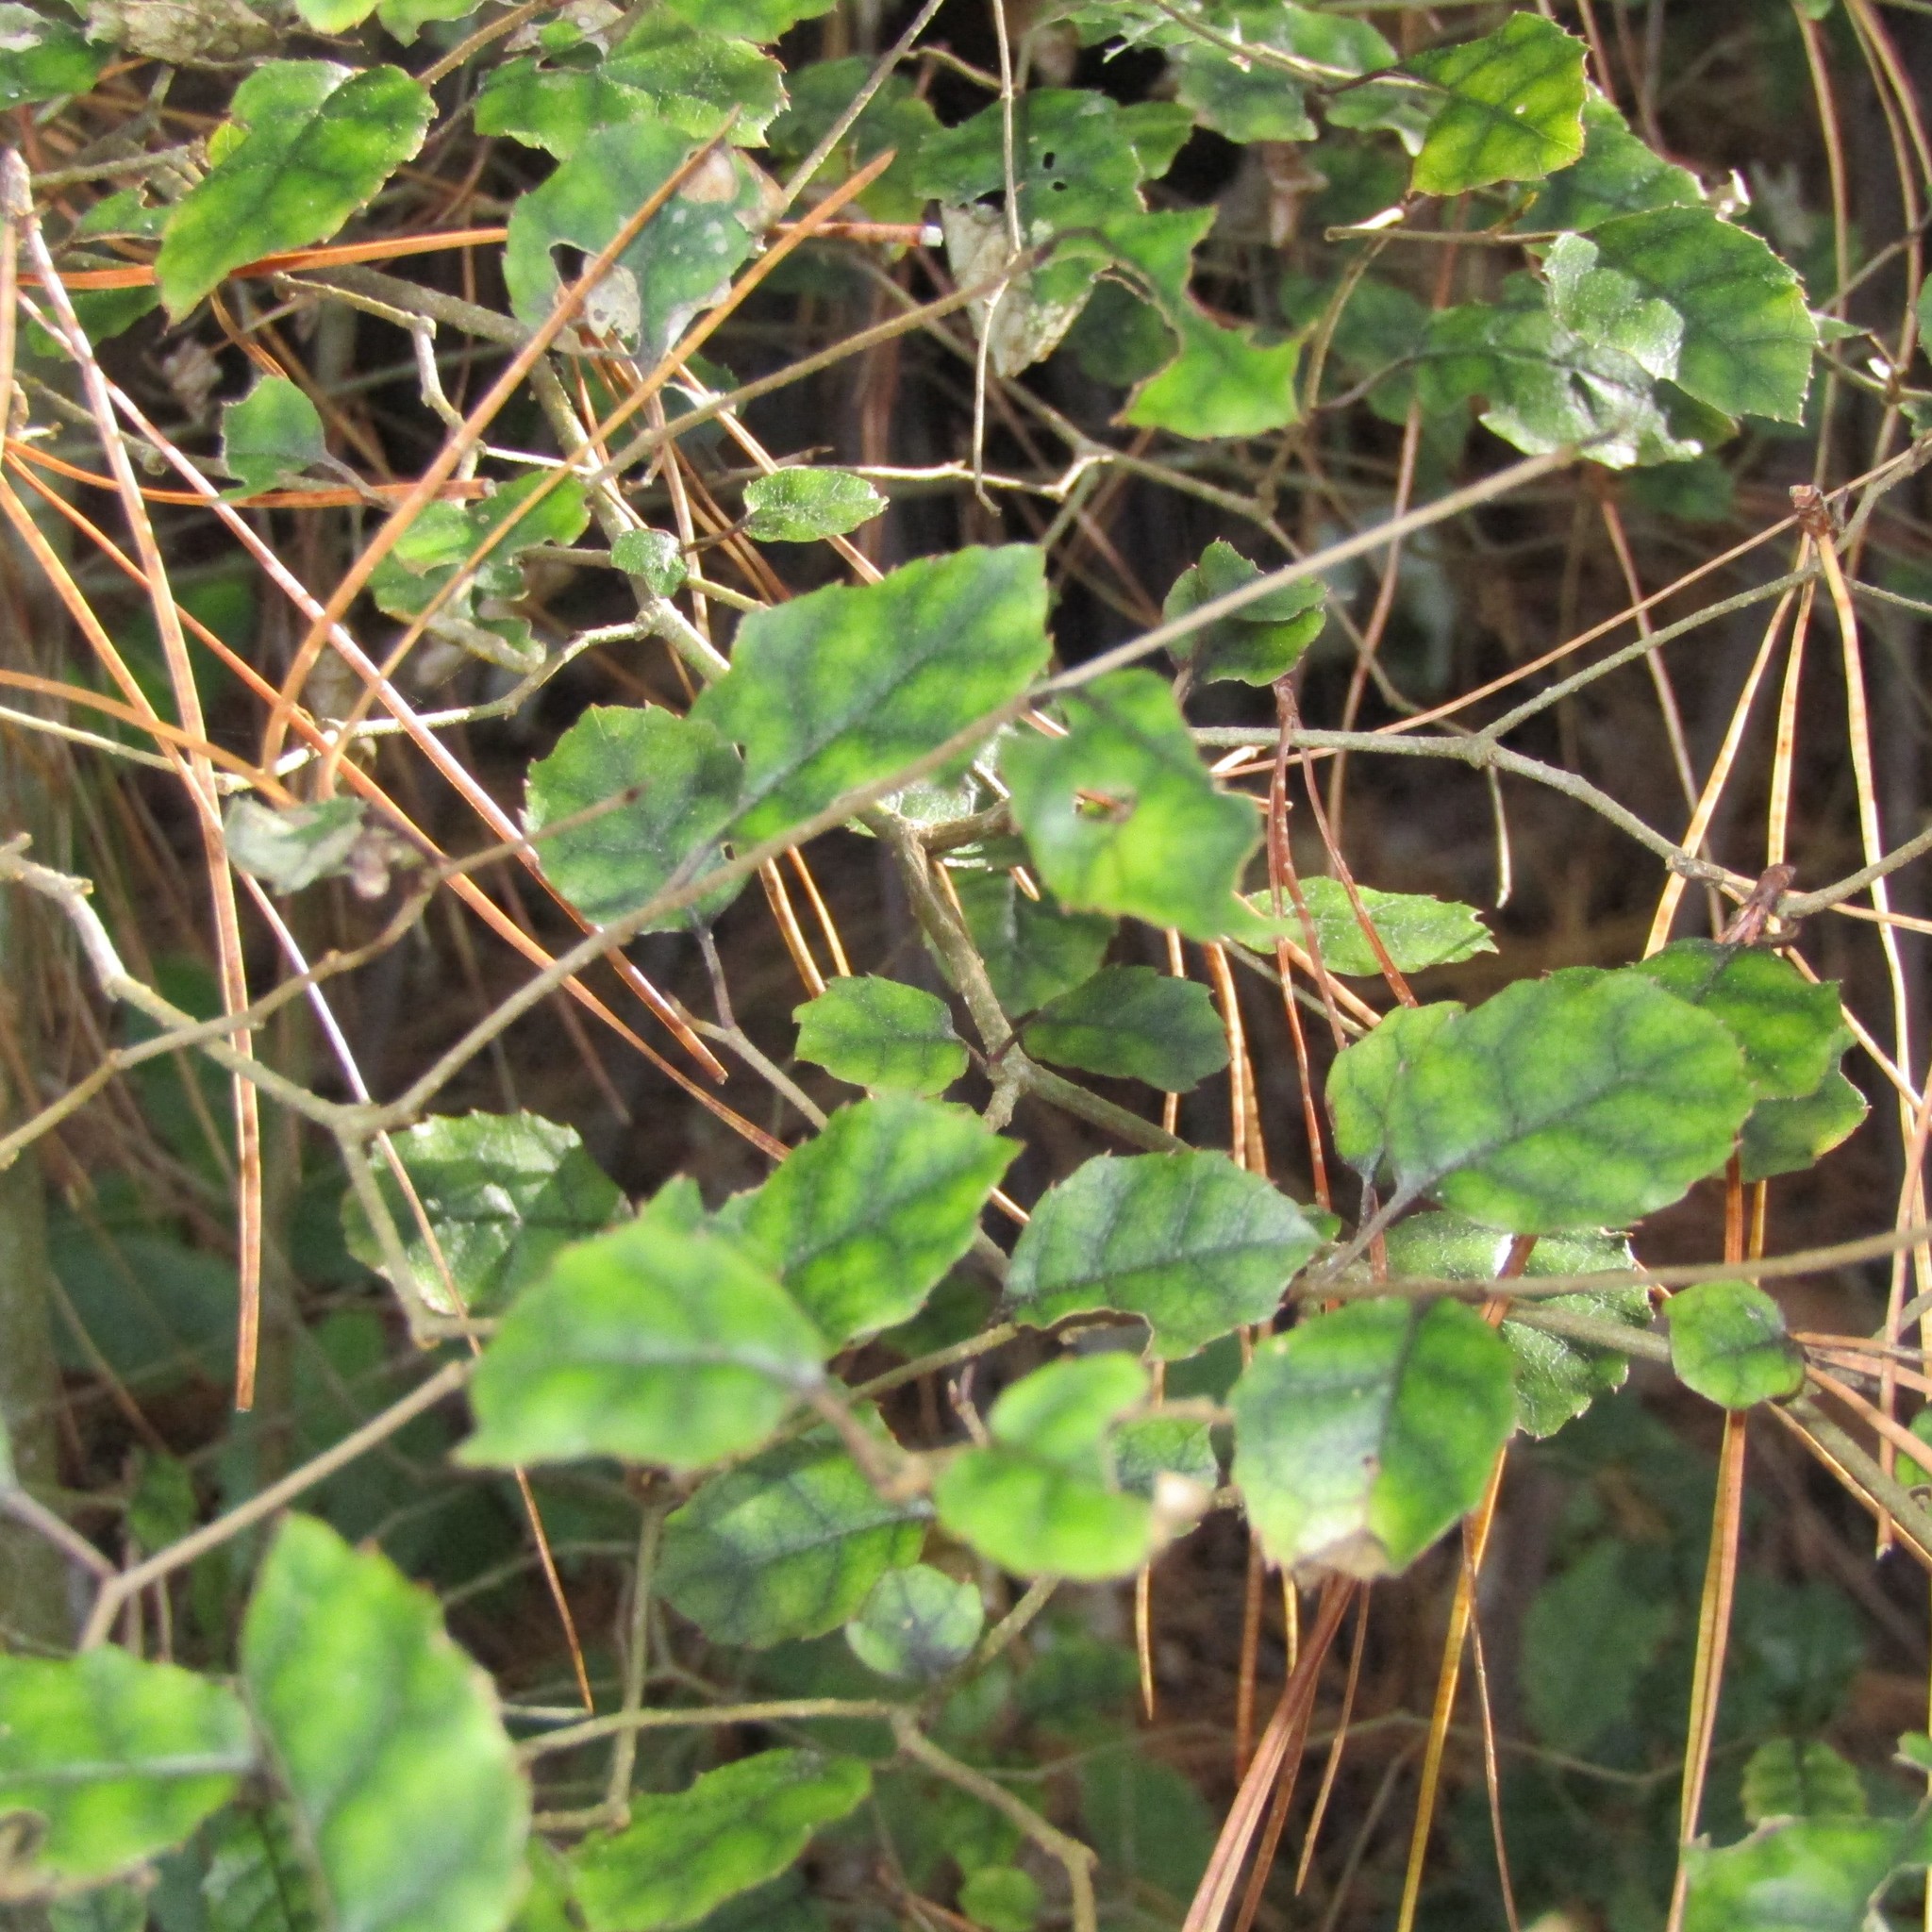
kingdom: Plantae
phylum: Tracheophyta
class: Magnoliopsida
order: Asterales
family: Rousseaceae
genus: Carpodetus
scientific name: Carpodetus serratus
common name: White mapau
